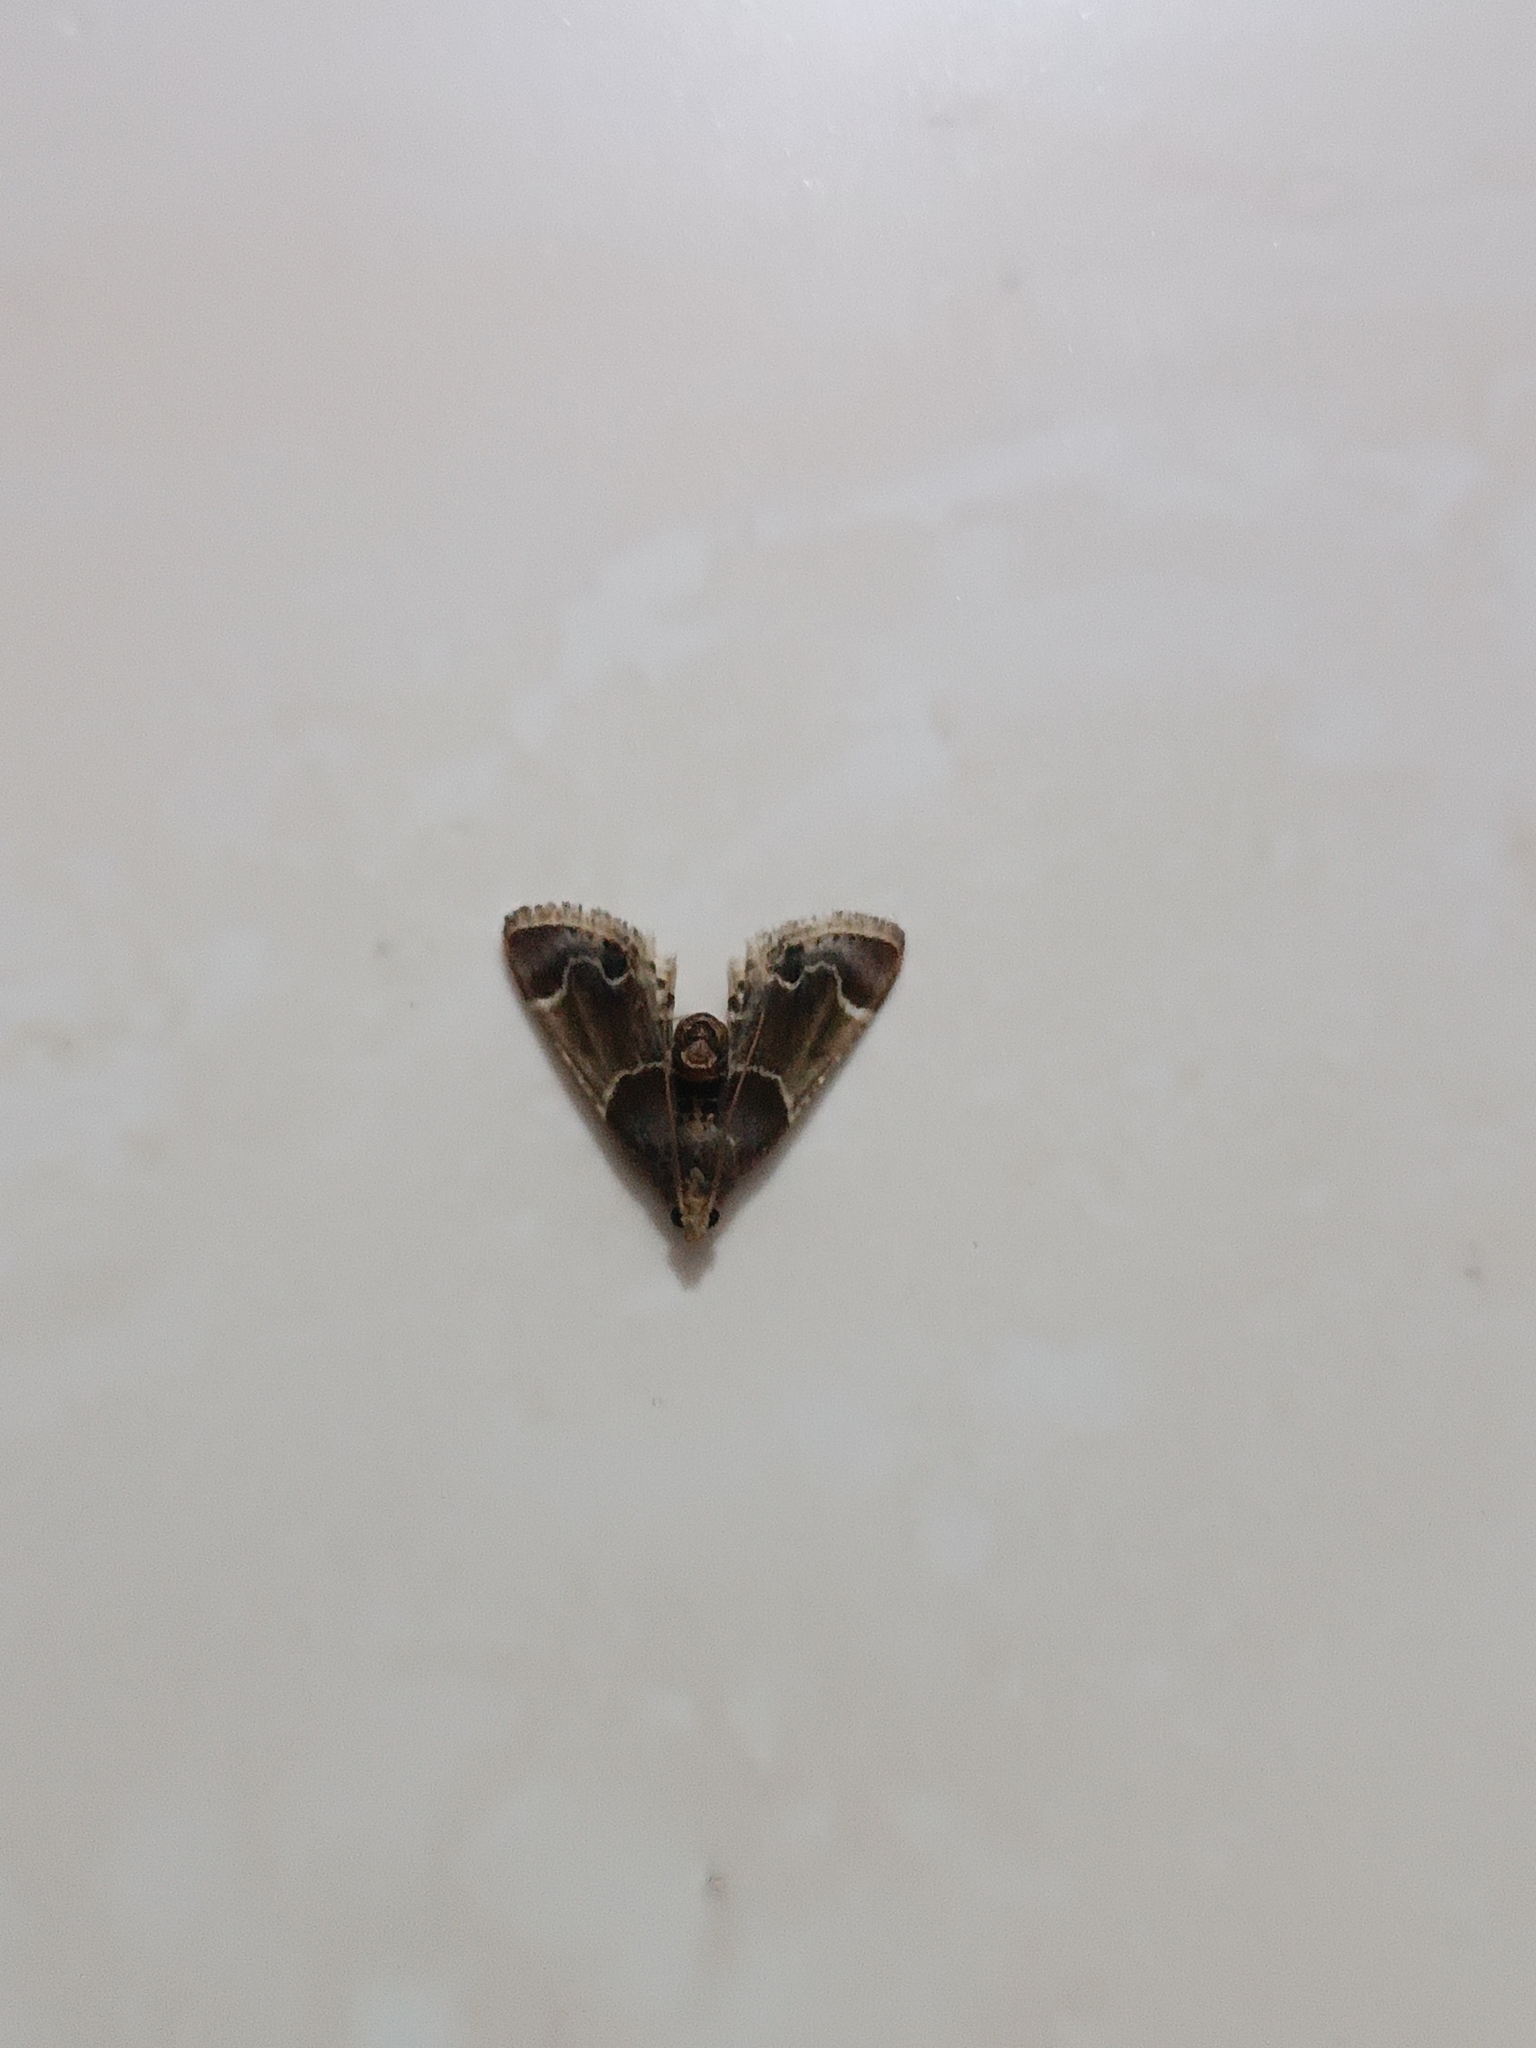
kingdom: Animalia
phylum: Arthropoda
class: Insecta
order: Lepidoptera
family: Pyralidae
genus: Pyralis
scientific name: Pyralis farinalis
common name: Meal moth
